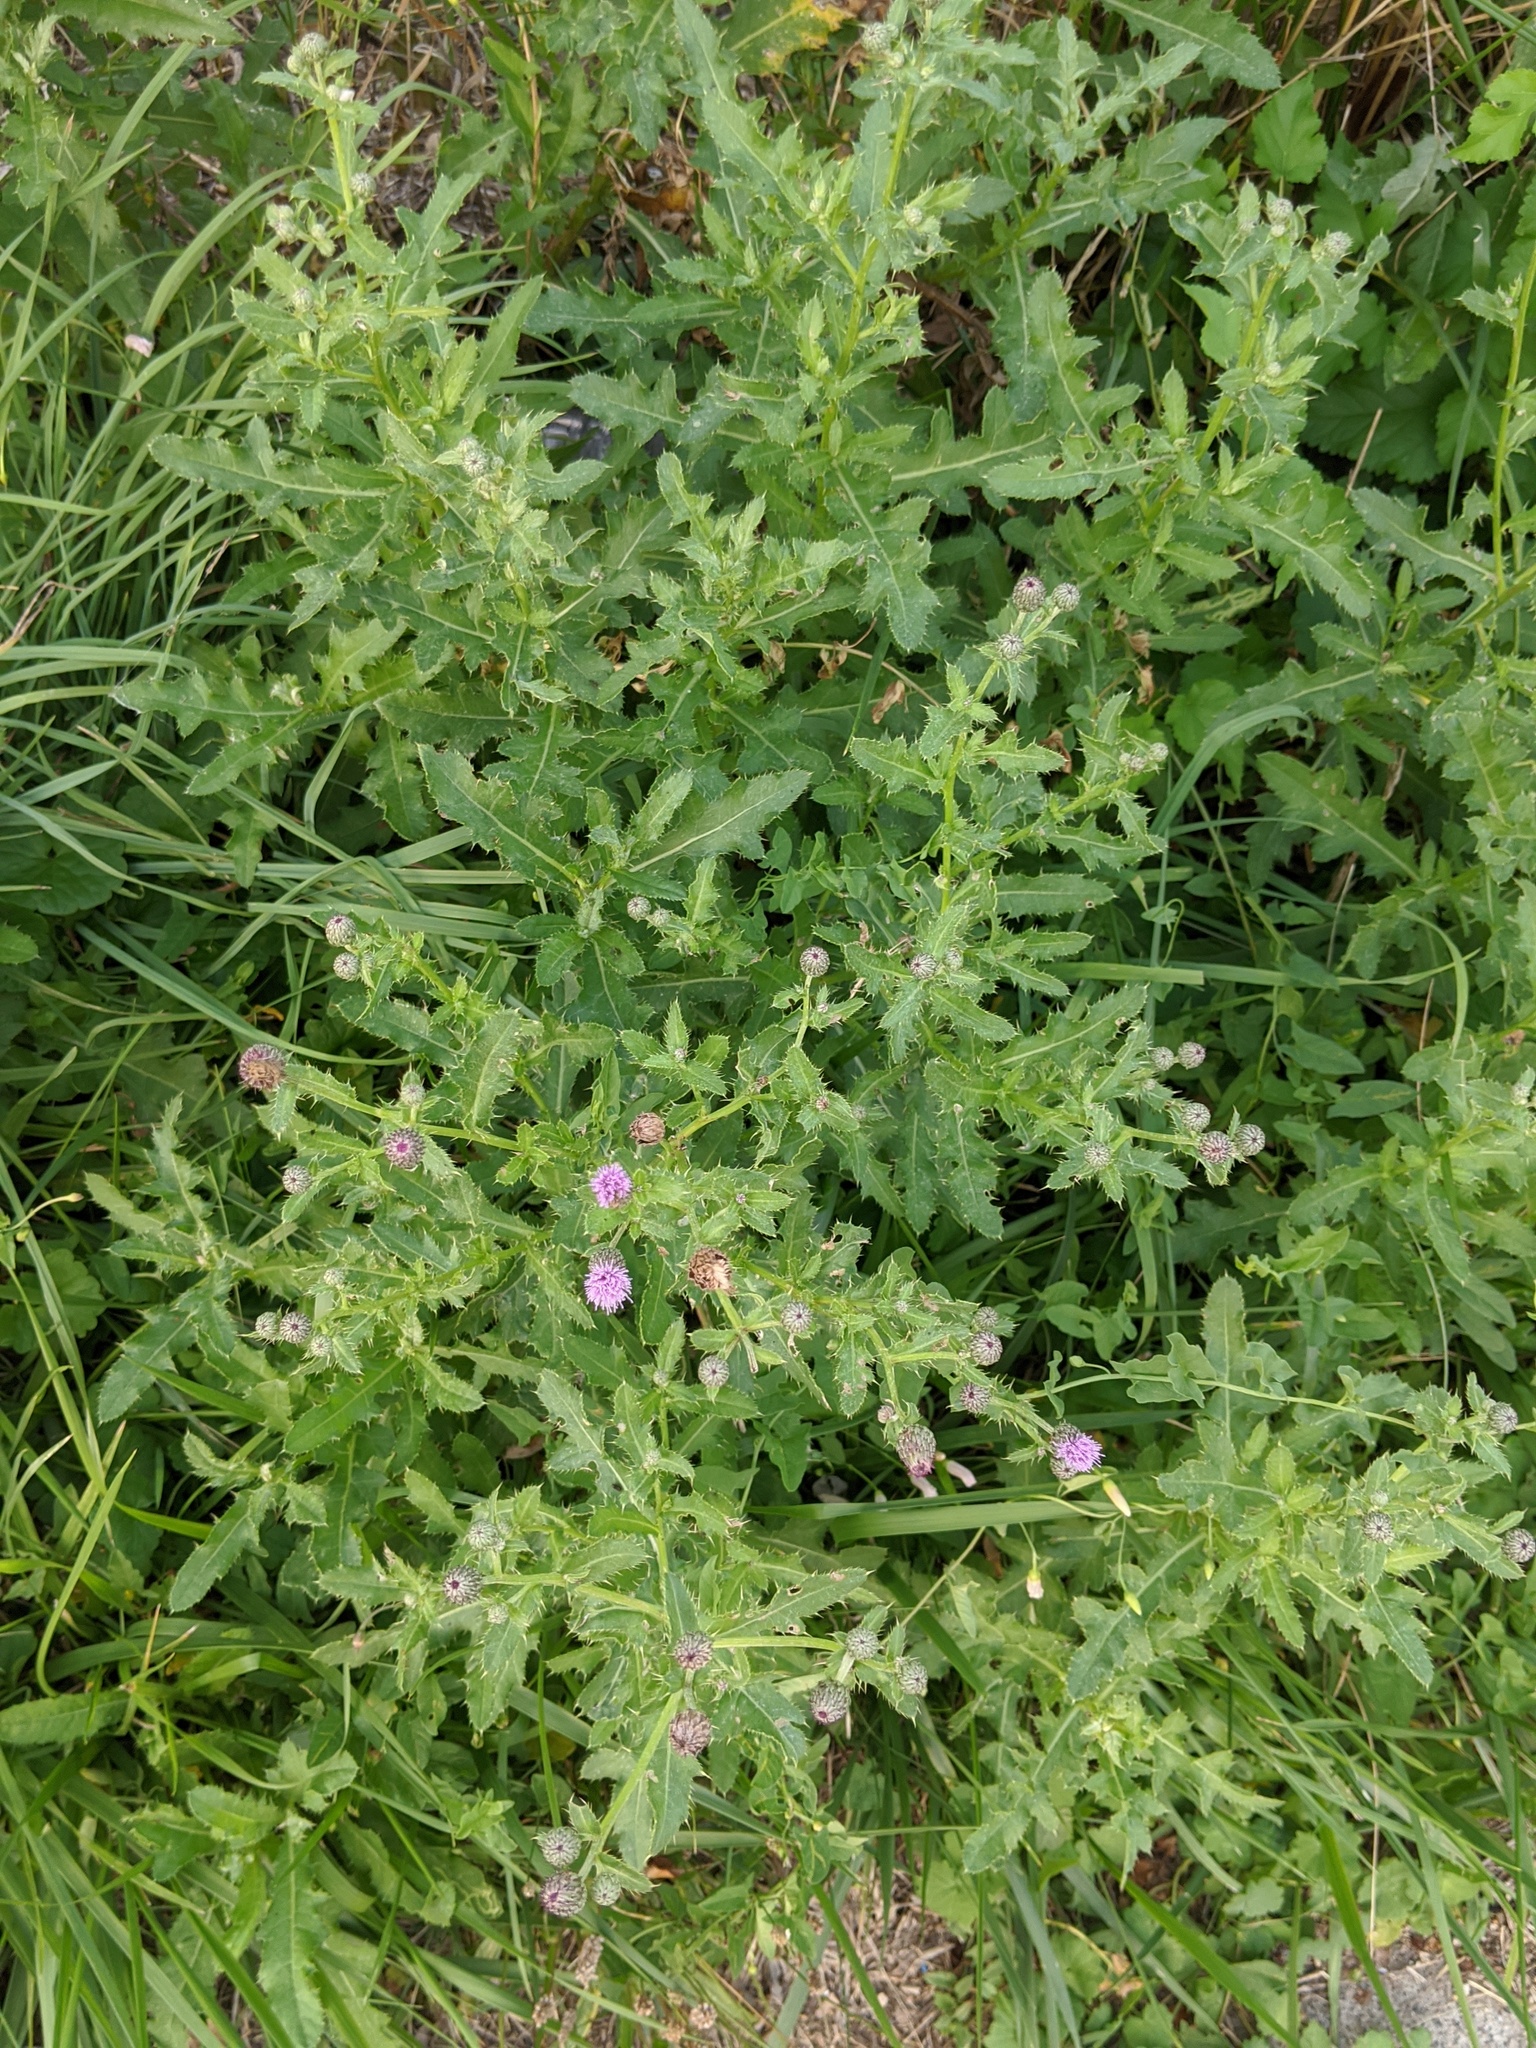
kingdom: Plantae
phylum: Tracheophyta
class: Magnoliopsida
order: Asterales
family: Asteraceae
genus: Cirsium
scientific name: Cirsium arvense
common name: Creeping thistle
